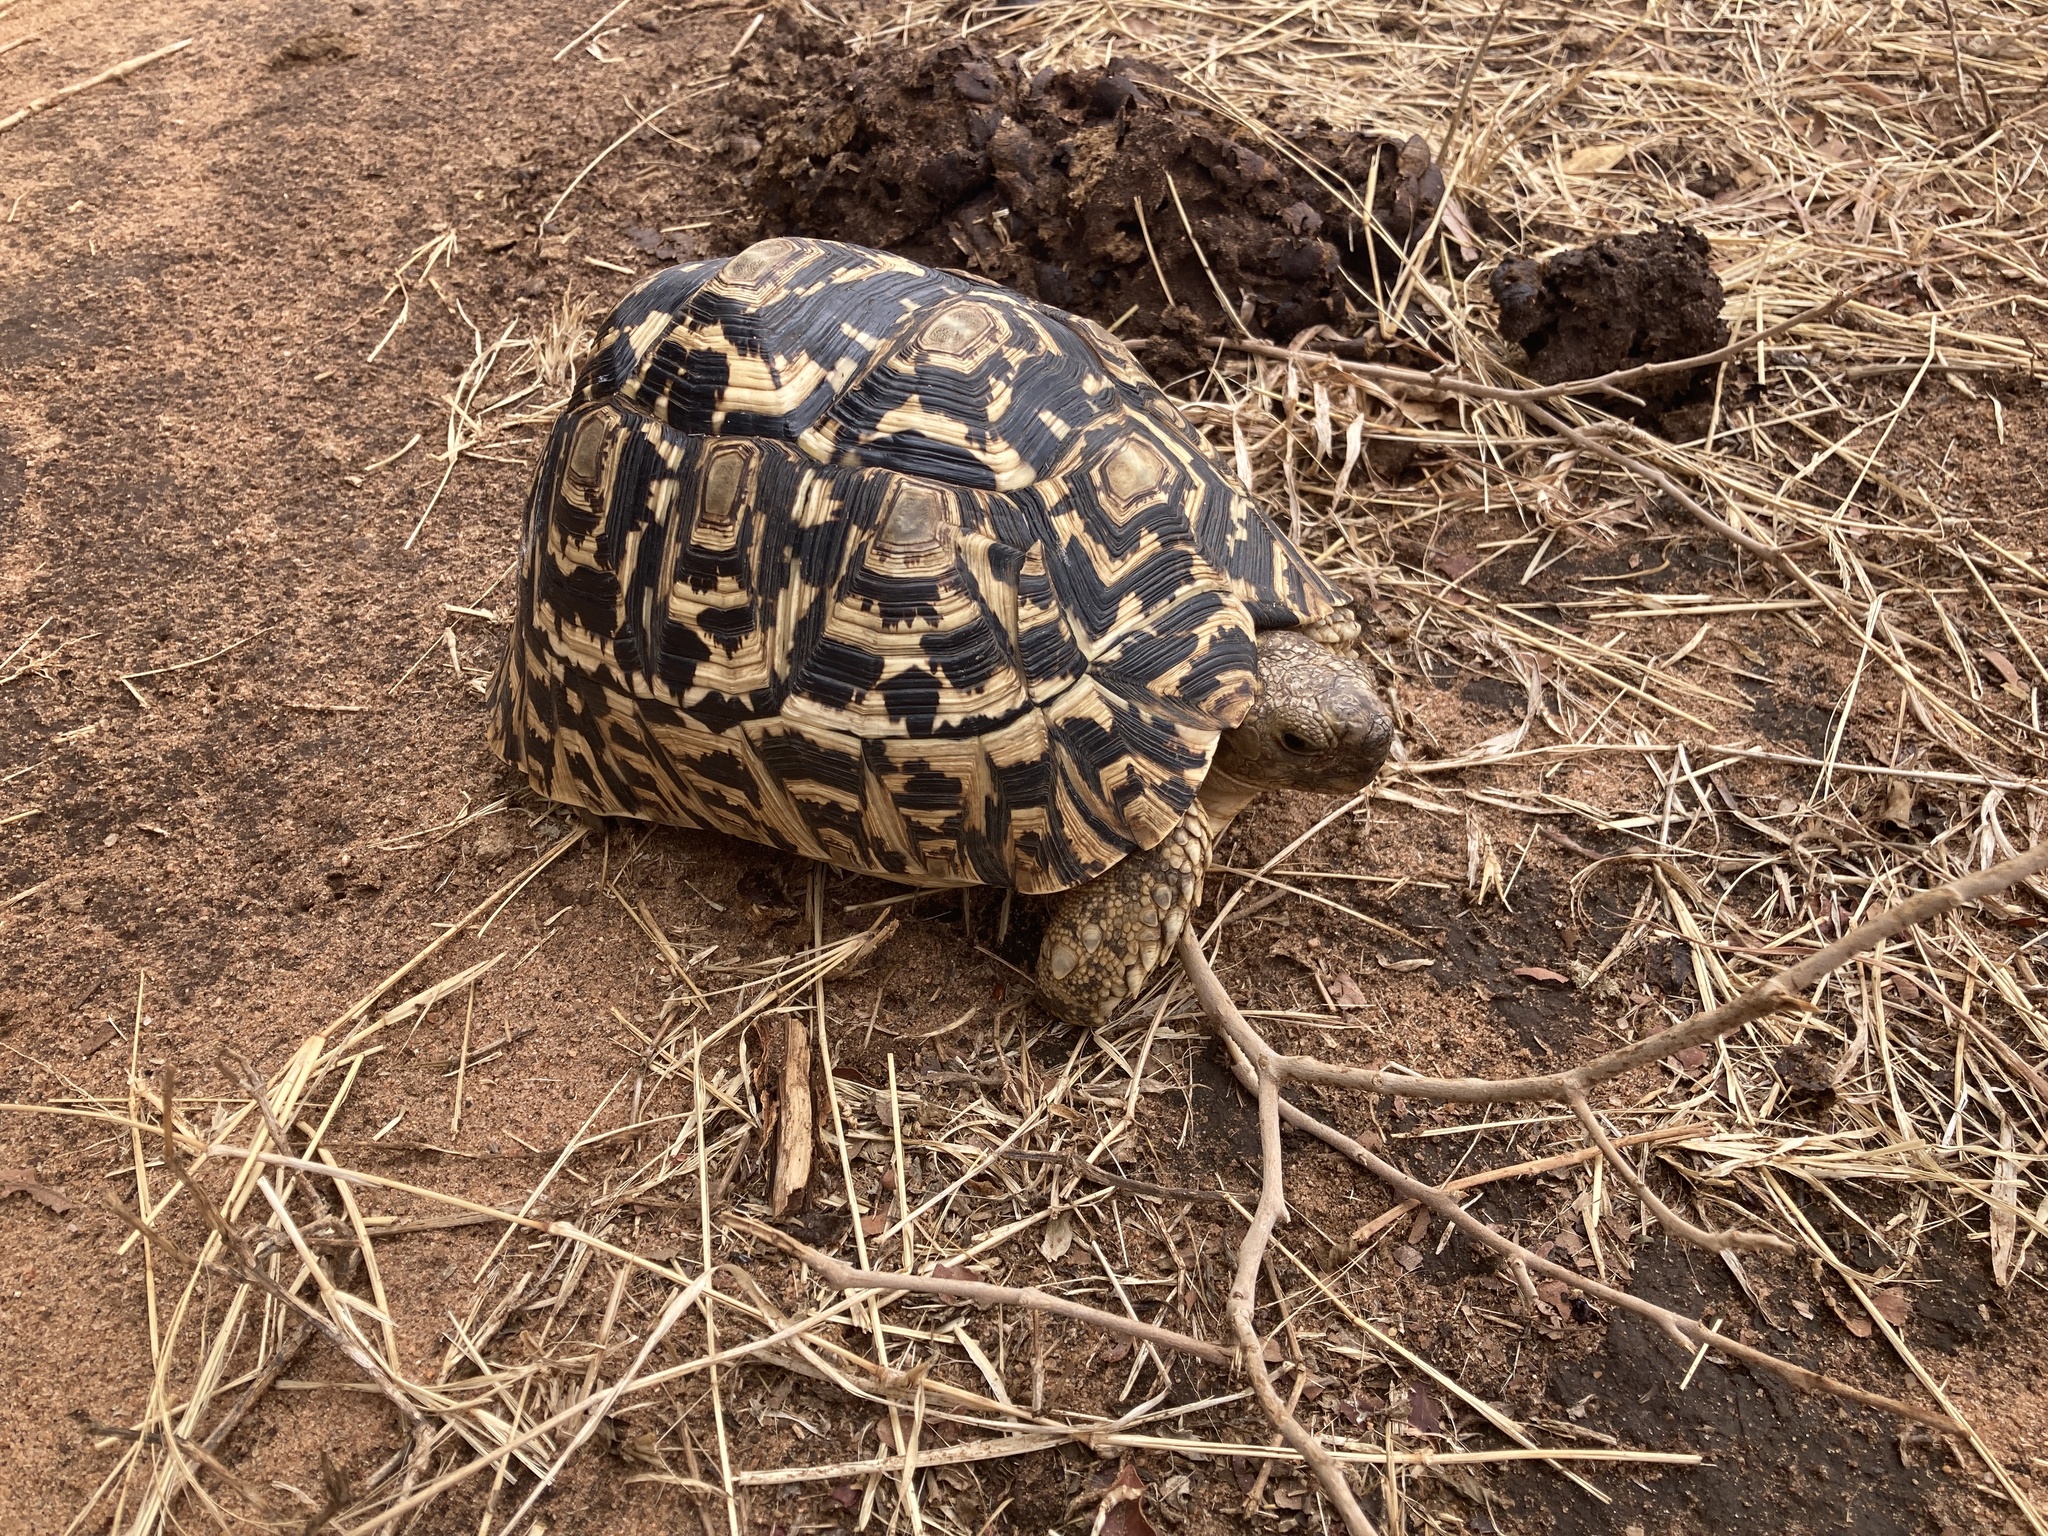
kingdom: Animalia
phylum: Chordata
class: Testudines
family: Testudinidae
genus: Stigmochelys
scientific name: Stigmochelys pardalis
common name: Leopard tortoise
